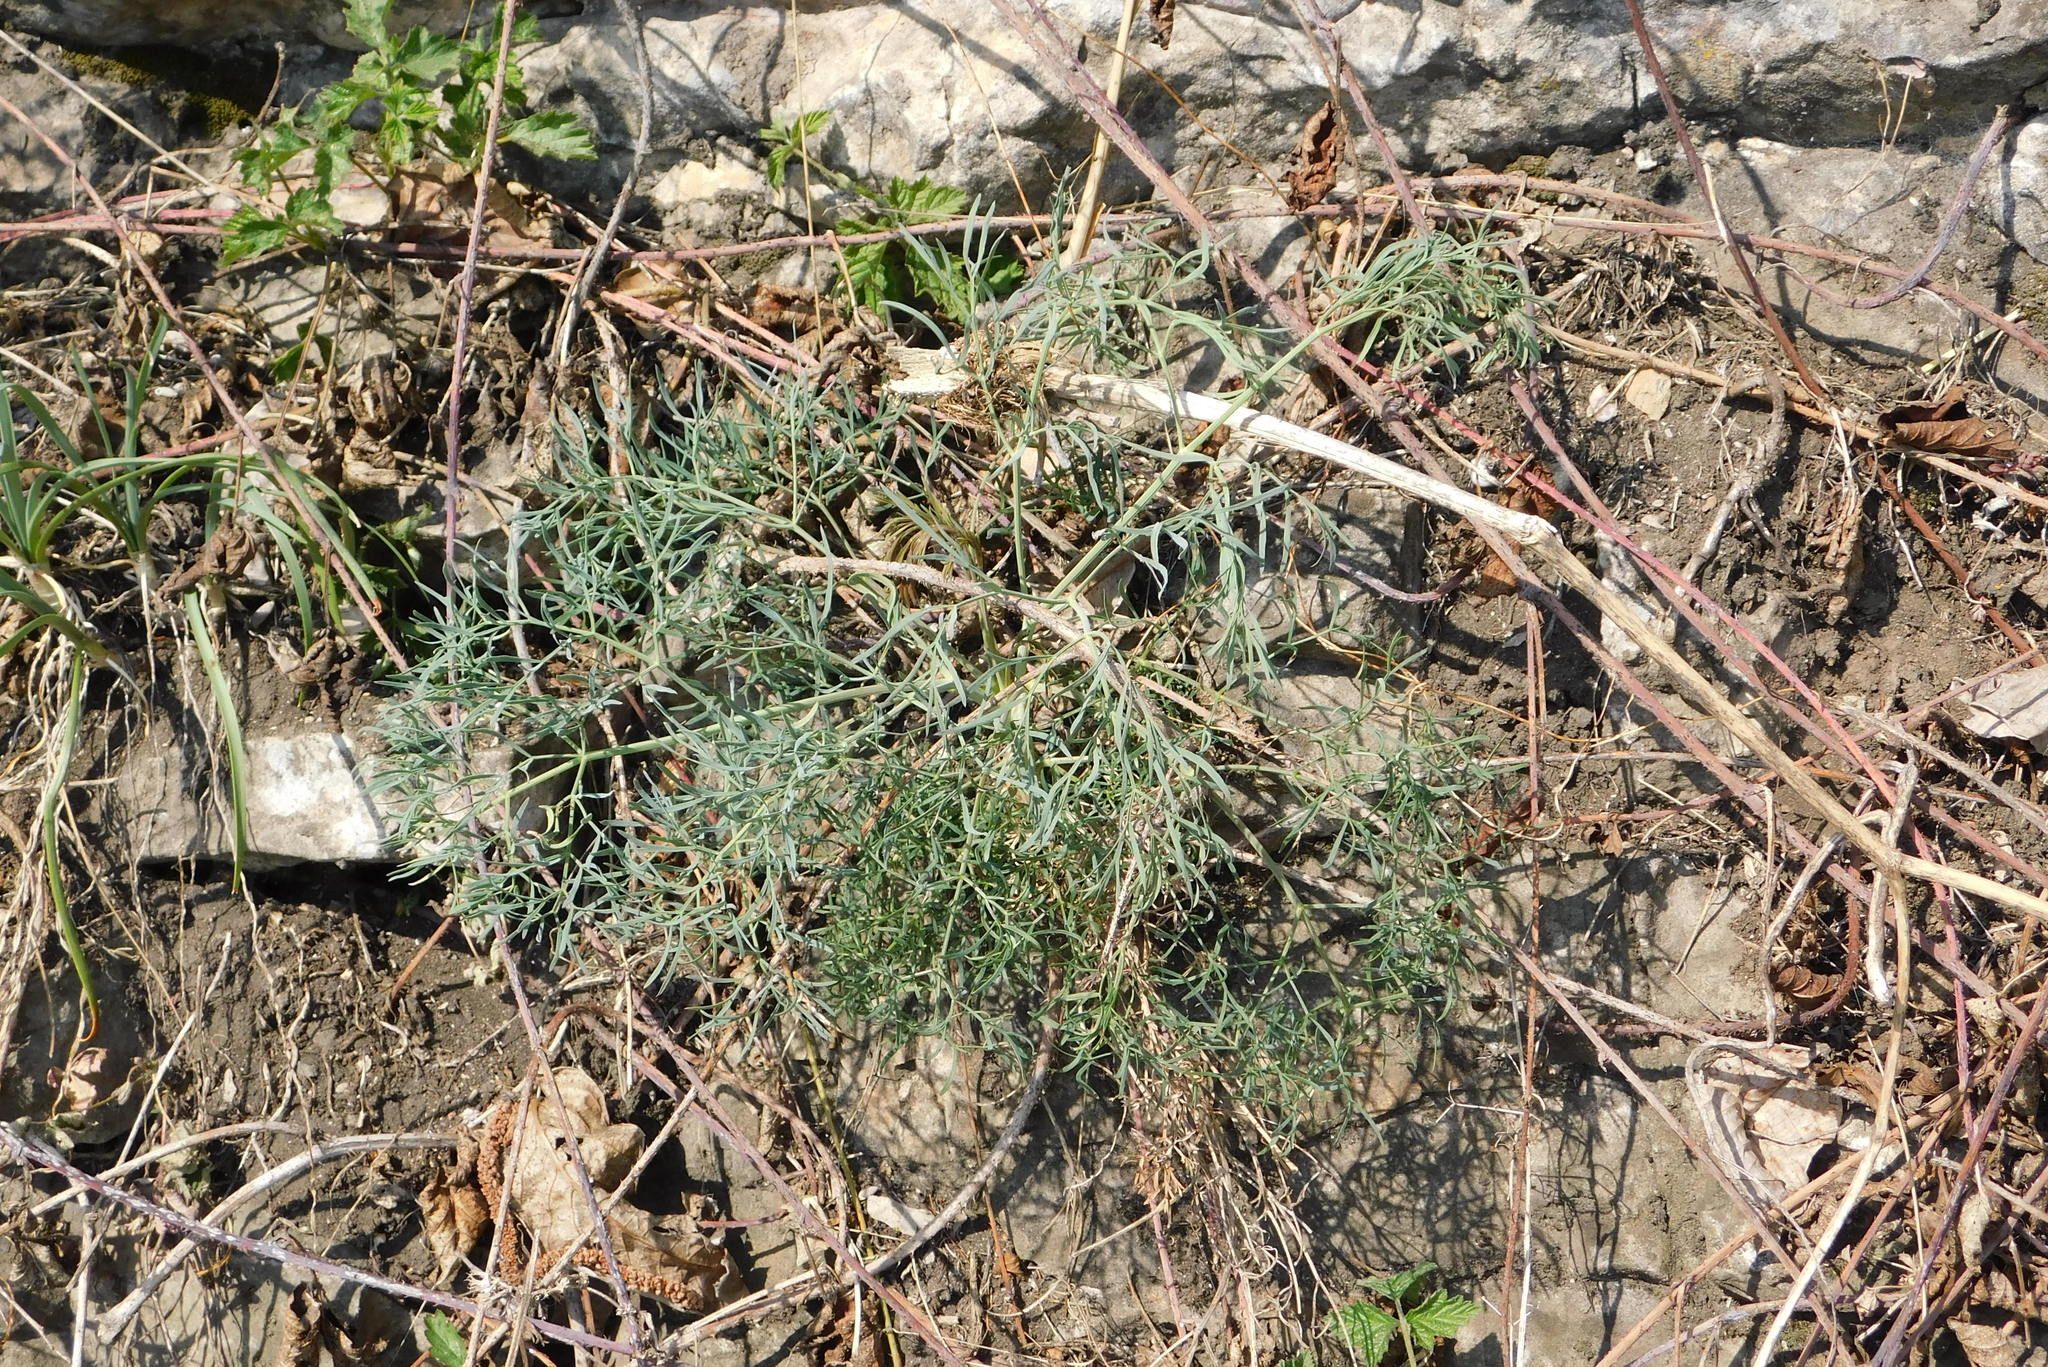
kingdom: Plantae
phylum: Tracheophyta
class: Magnoliopsida
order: Apiales
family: Apiaceae
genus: Seseli
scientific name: Seseli osseum
